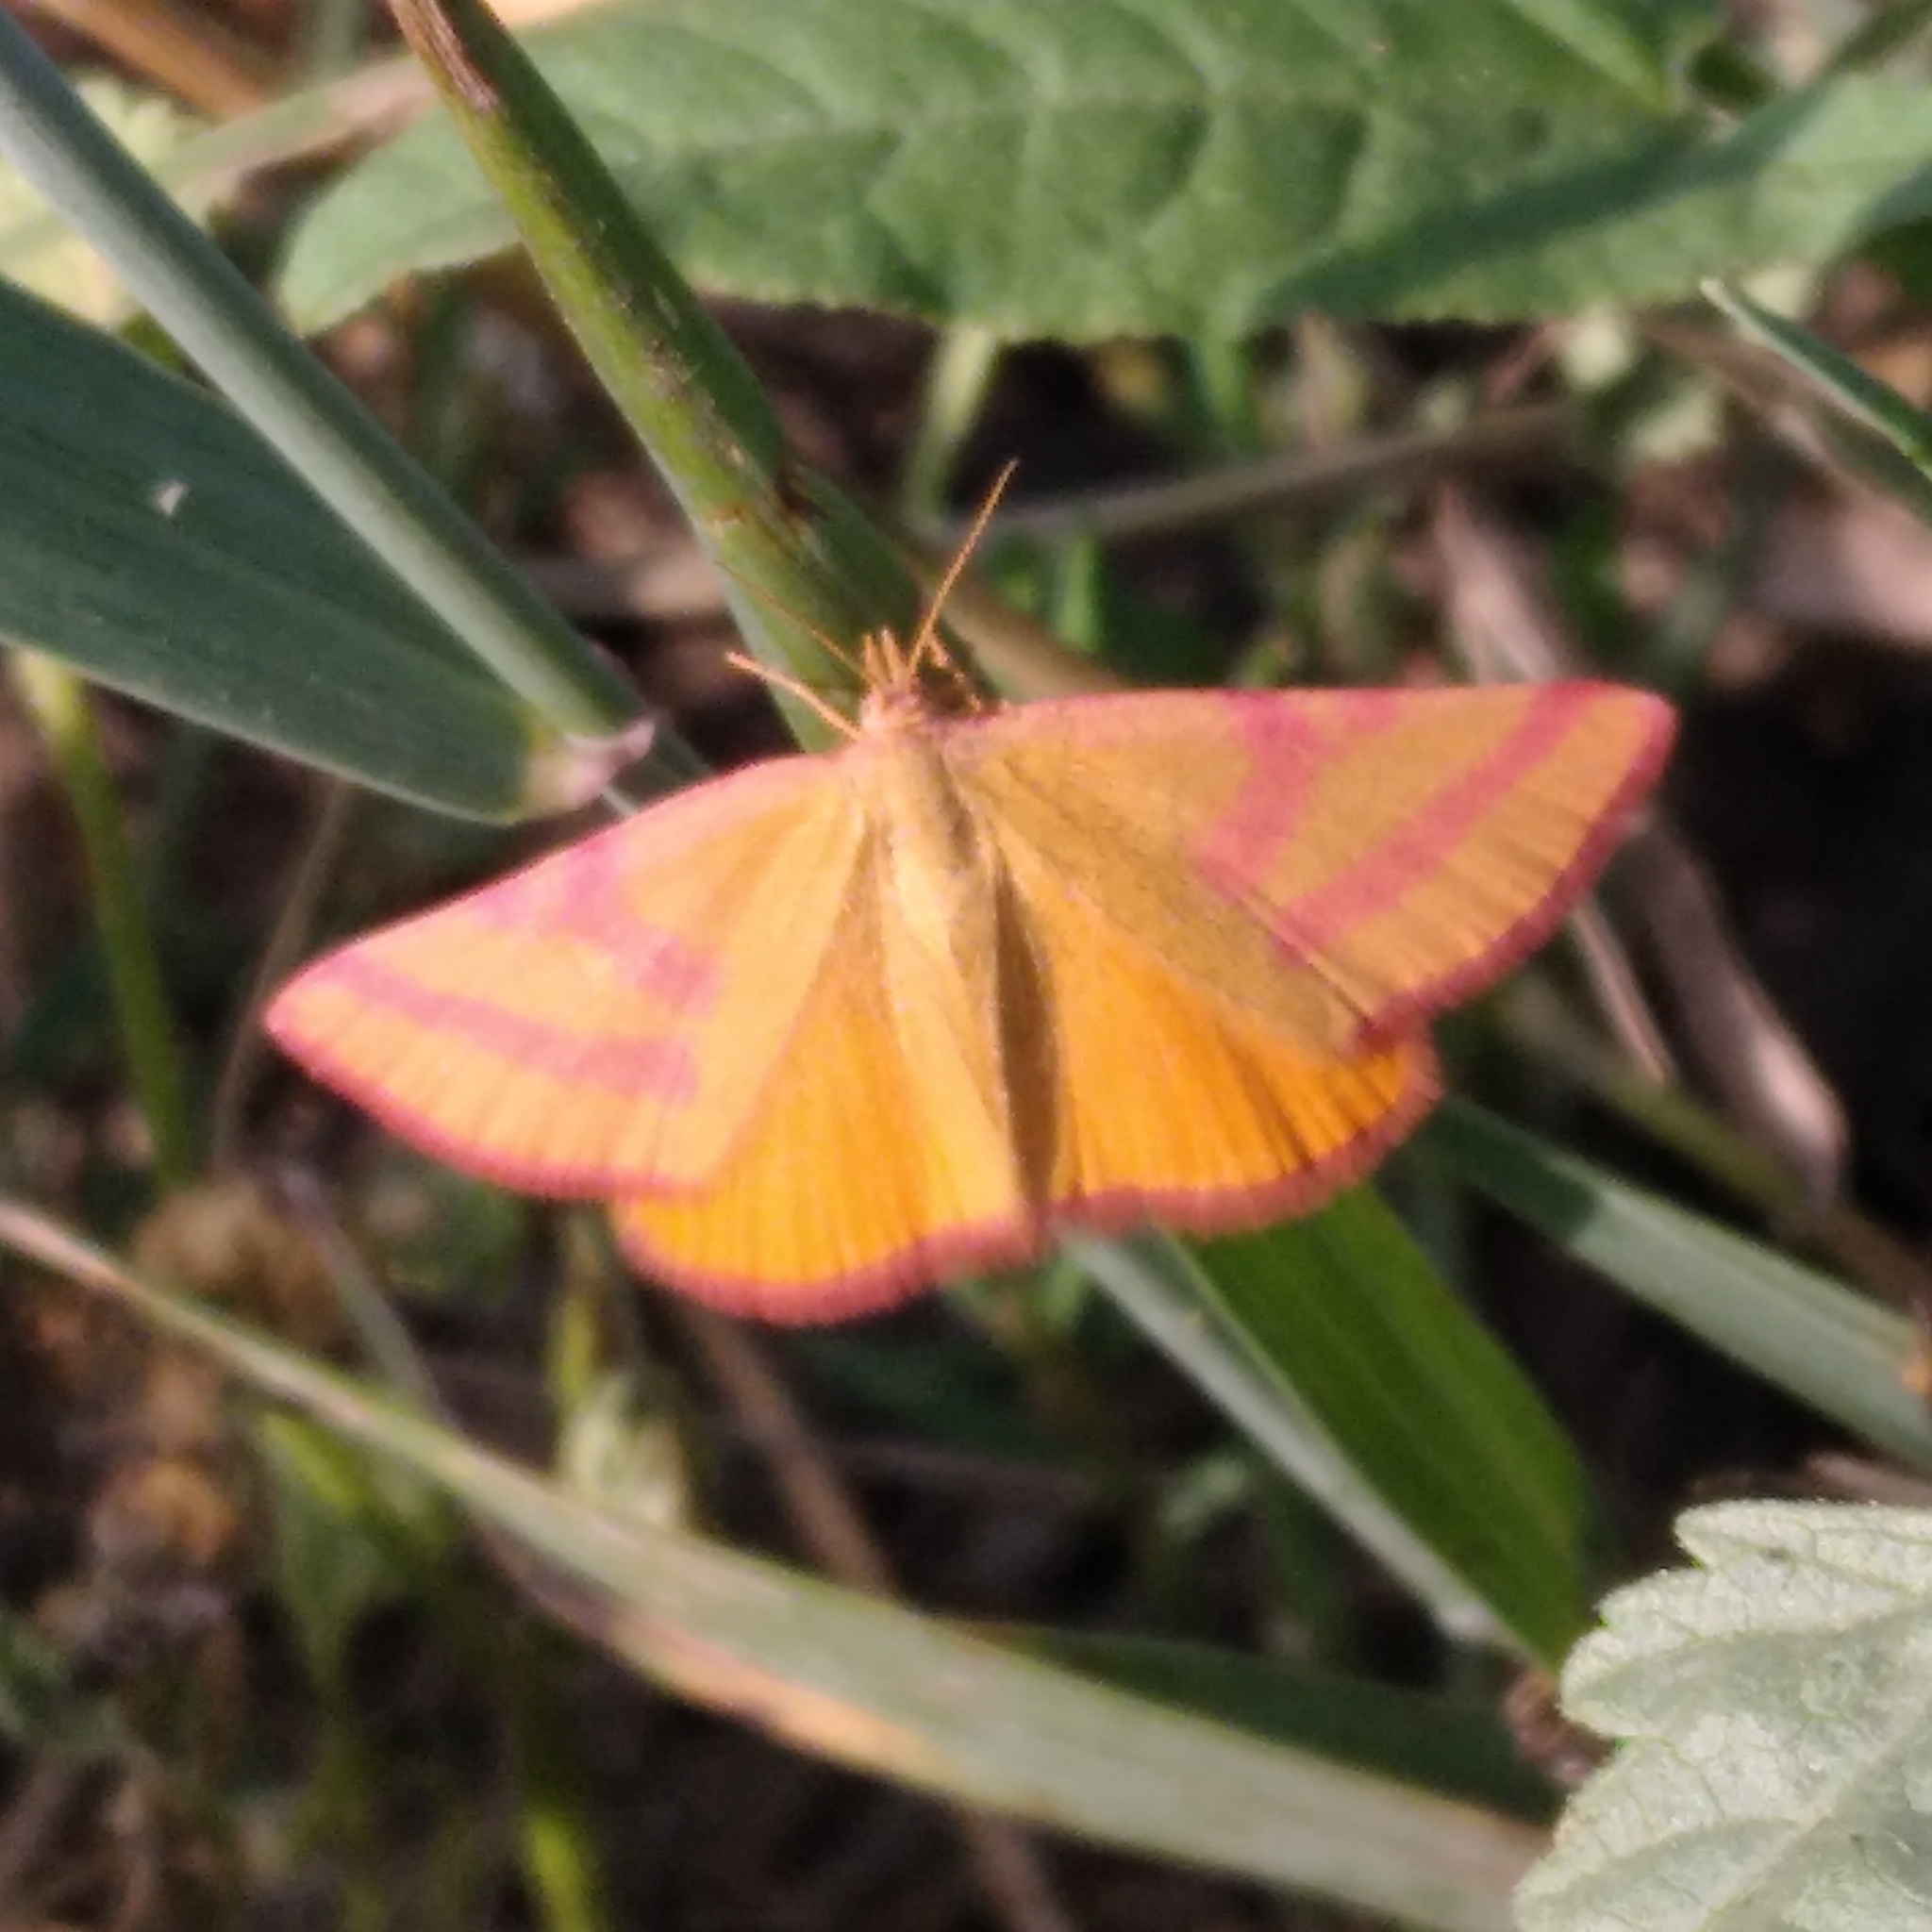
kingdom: Animalia
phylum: Arthropoda
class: Insecta
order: Lepidoptera
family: Geometridae
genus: Lythria
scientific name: Lythria purpuraria
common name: Purple-barred yellow
